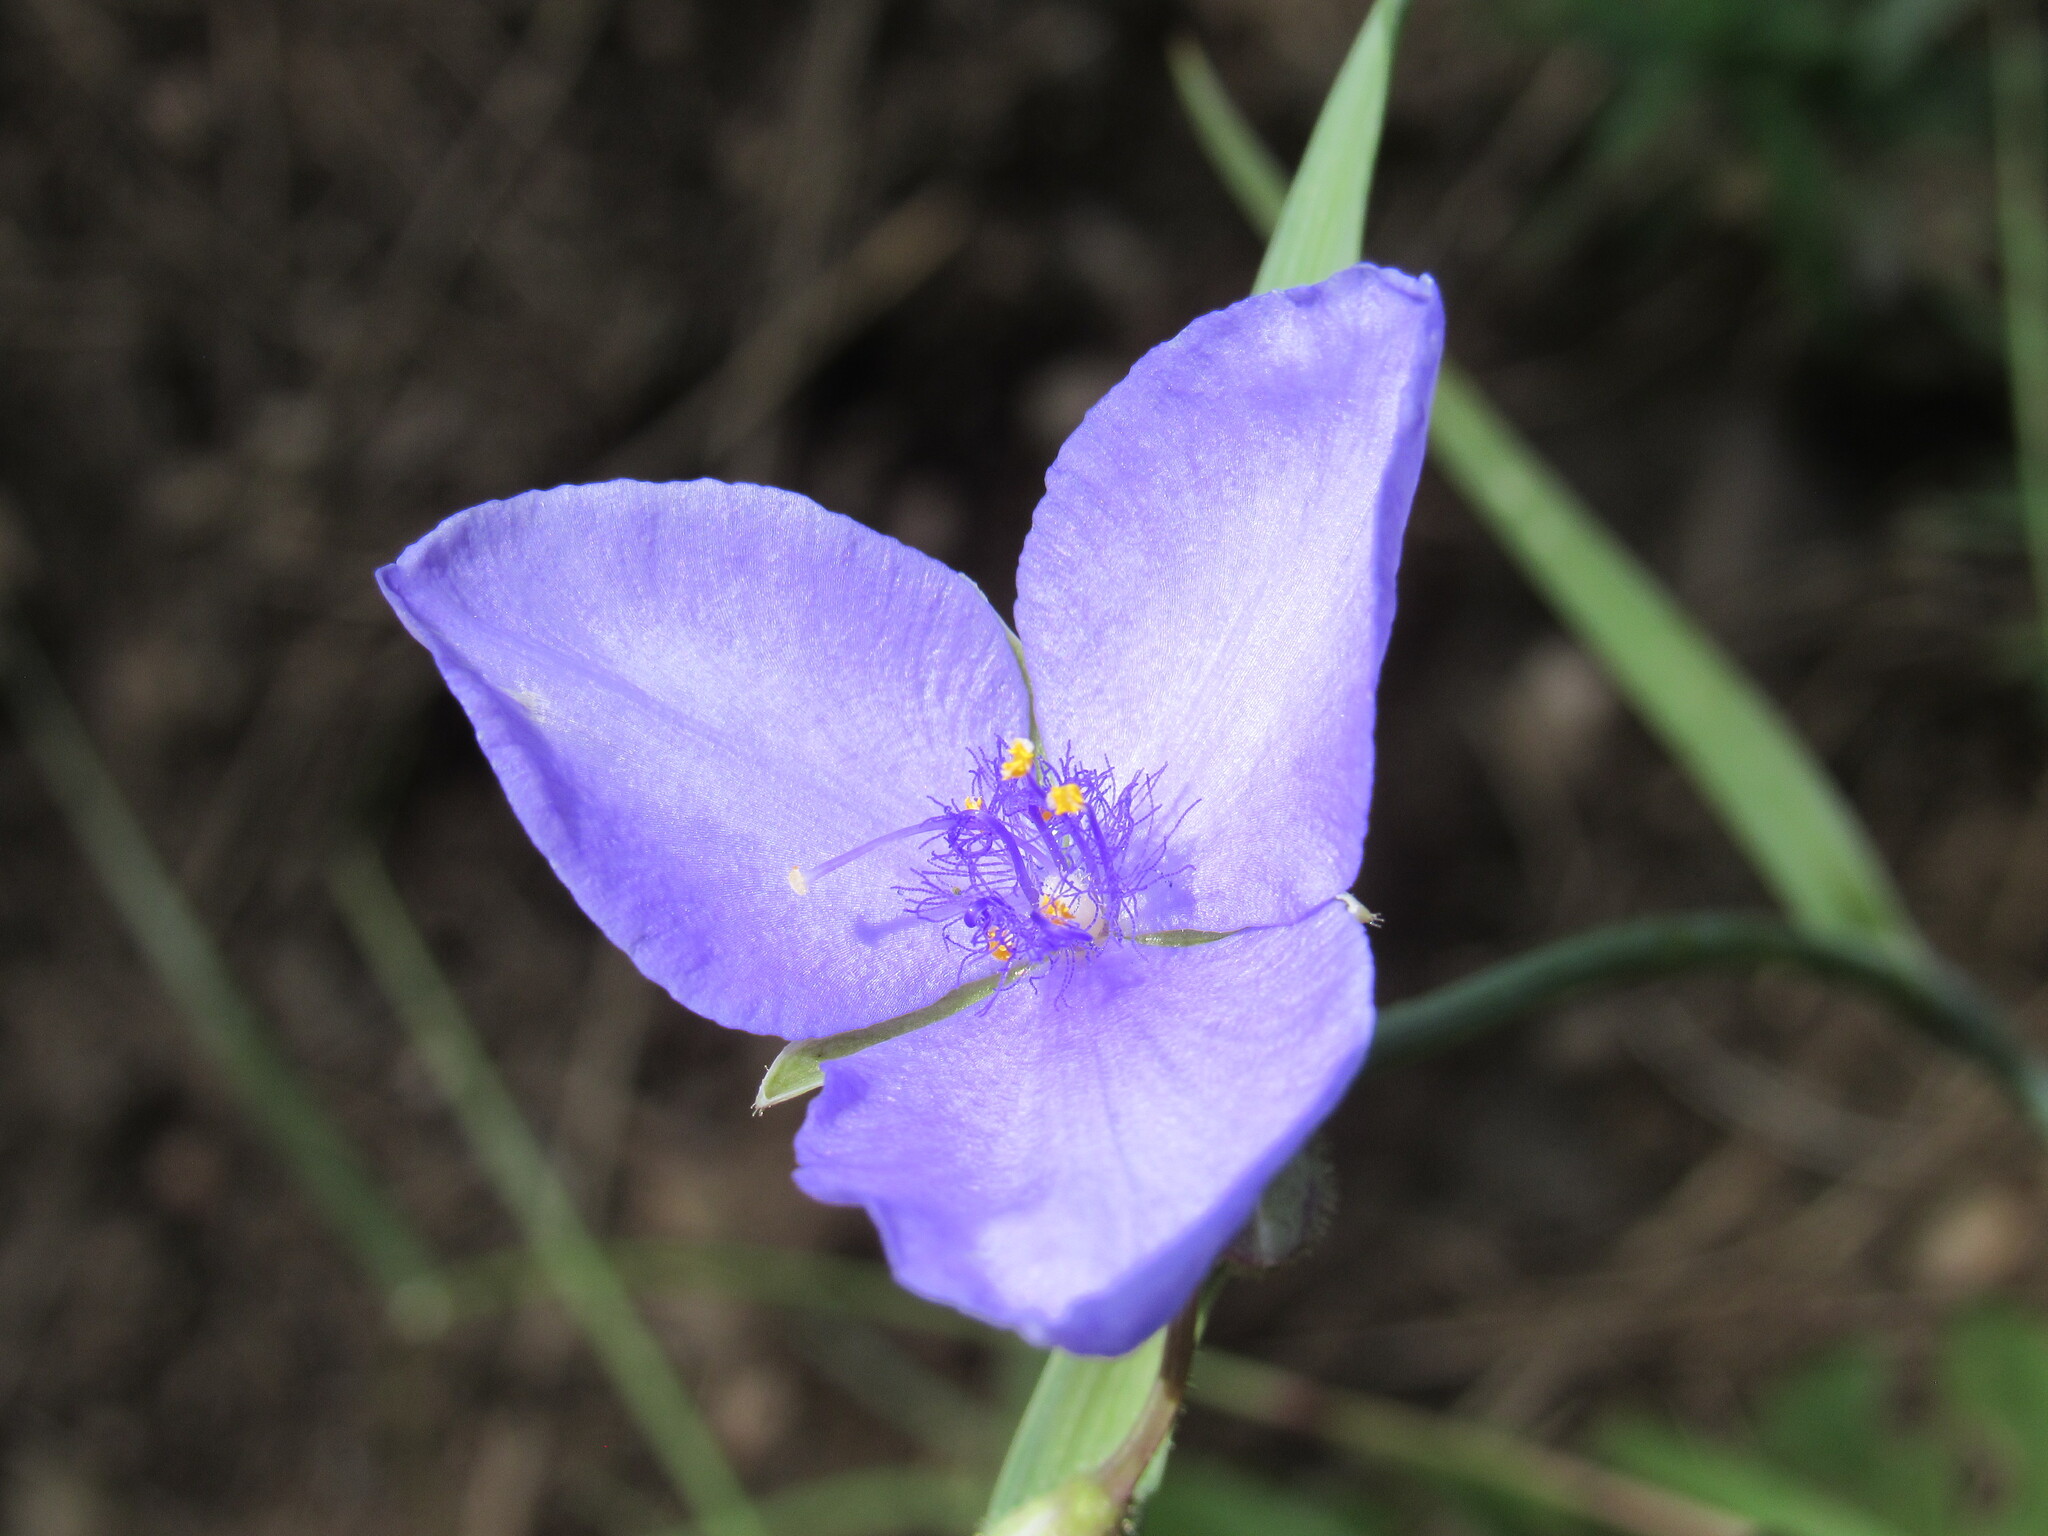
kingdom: Plantae
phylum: Tracheophyta
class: Liliopsida
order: Commelinales
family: Commelinaceae
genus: Tradescantia
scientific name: Tradescantia occidentalis
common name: Prairie spiderwort
